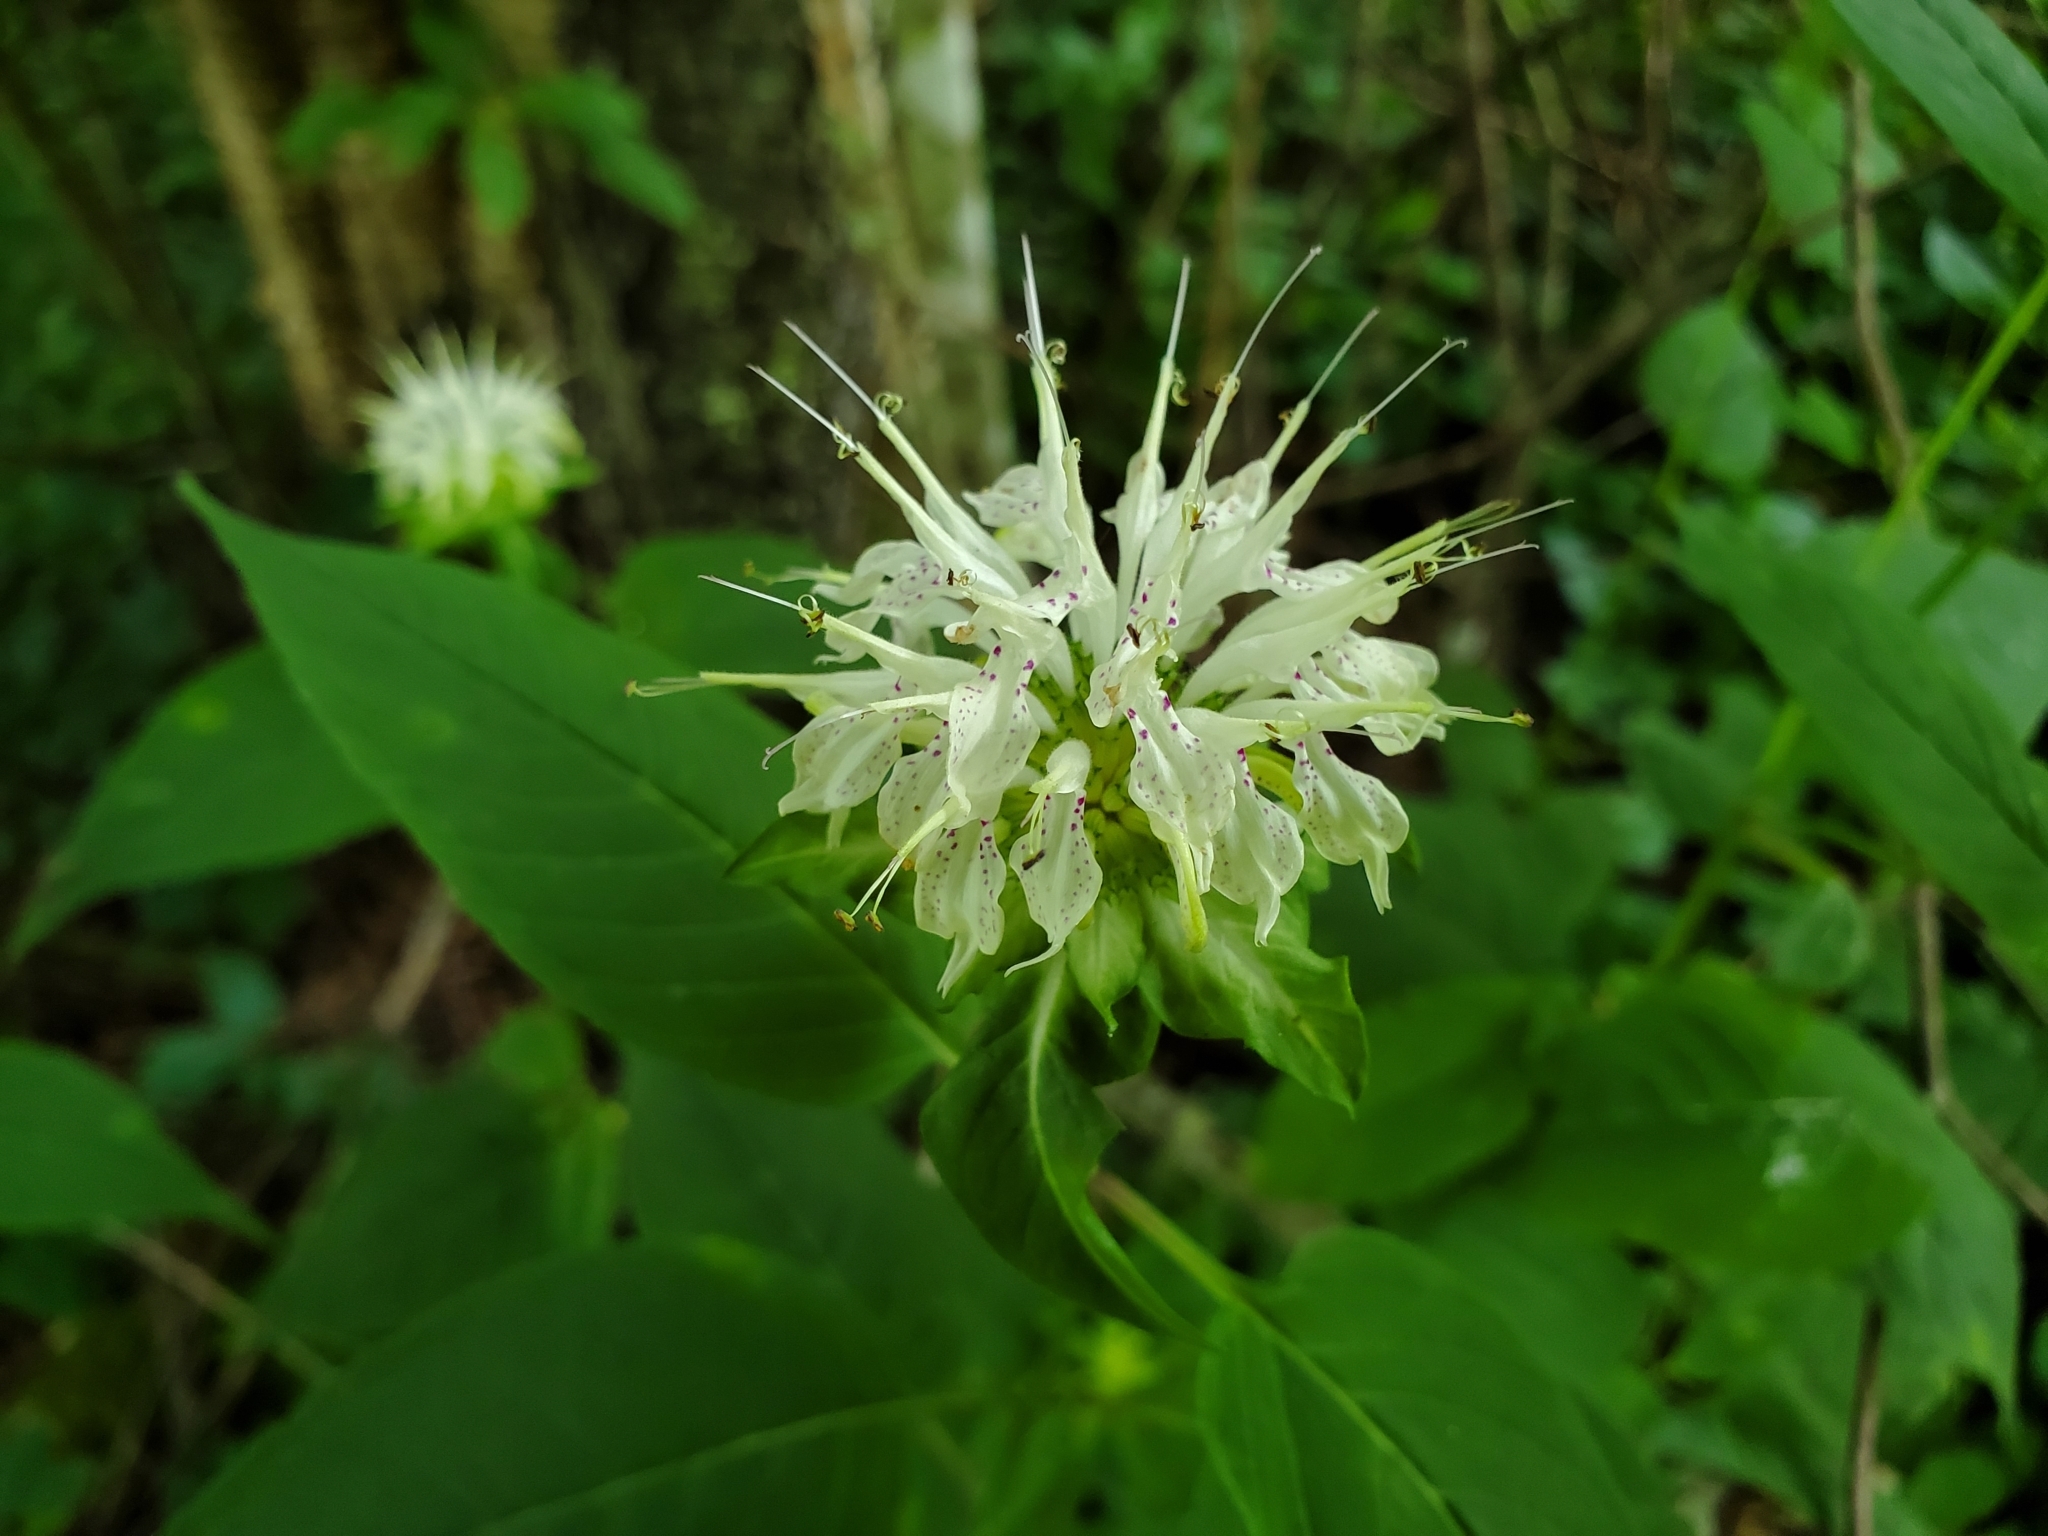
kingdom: Plantae
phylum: Tracheophyta
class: Magnoliopsida
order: Lamiales
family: Lamiaceae
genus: Monarda
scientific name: Monarda clinopodia
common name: Basil beebalm
